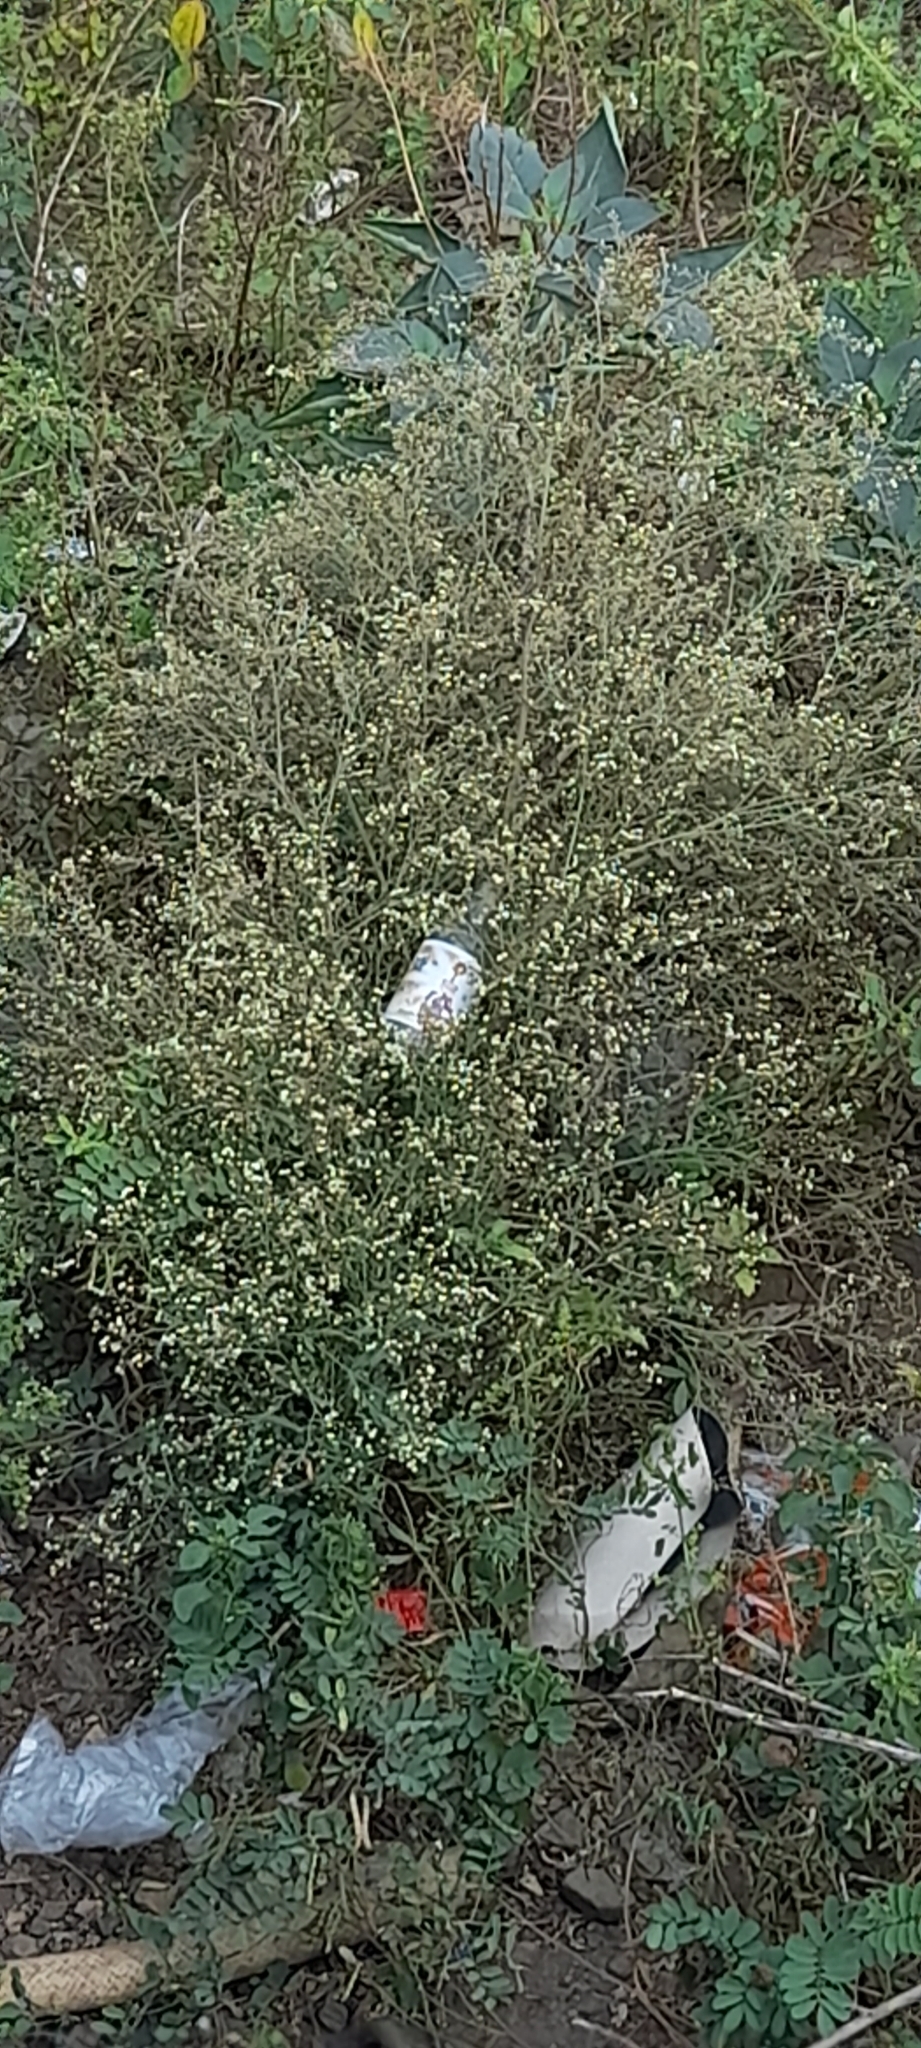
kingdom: Plantae
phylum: Tracheophyta
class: Magnoliopsida
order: Asterales
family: Asteraceae
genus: Parthenium
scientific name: Parthenium hysterophorus
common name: Santa maria feverfew
